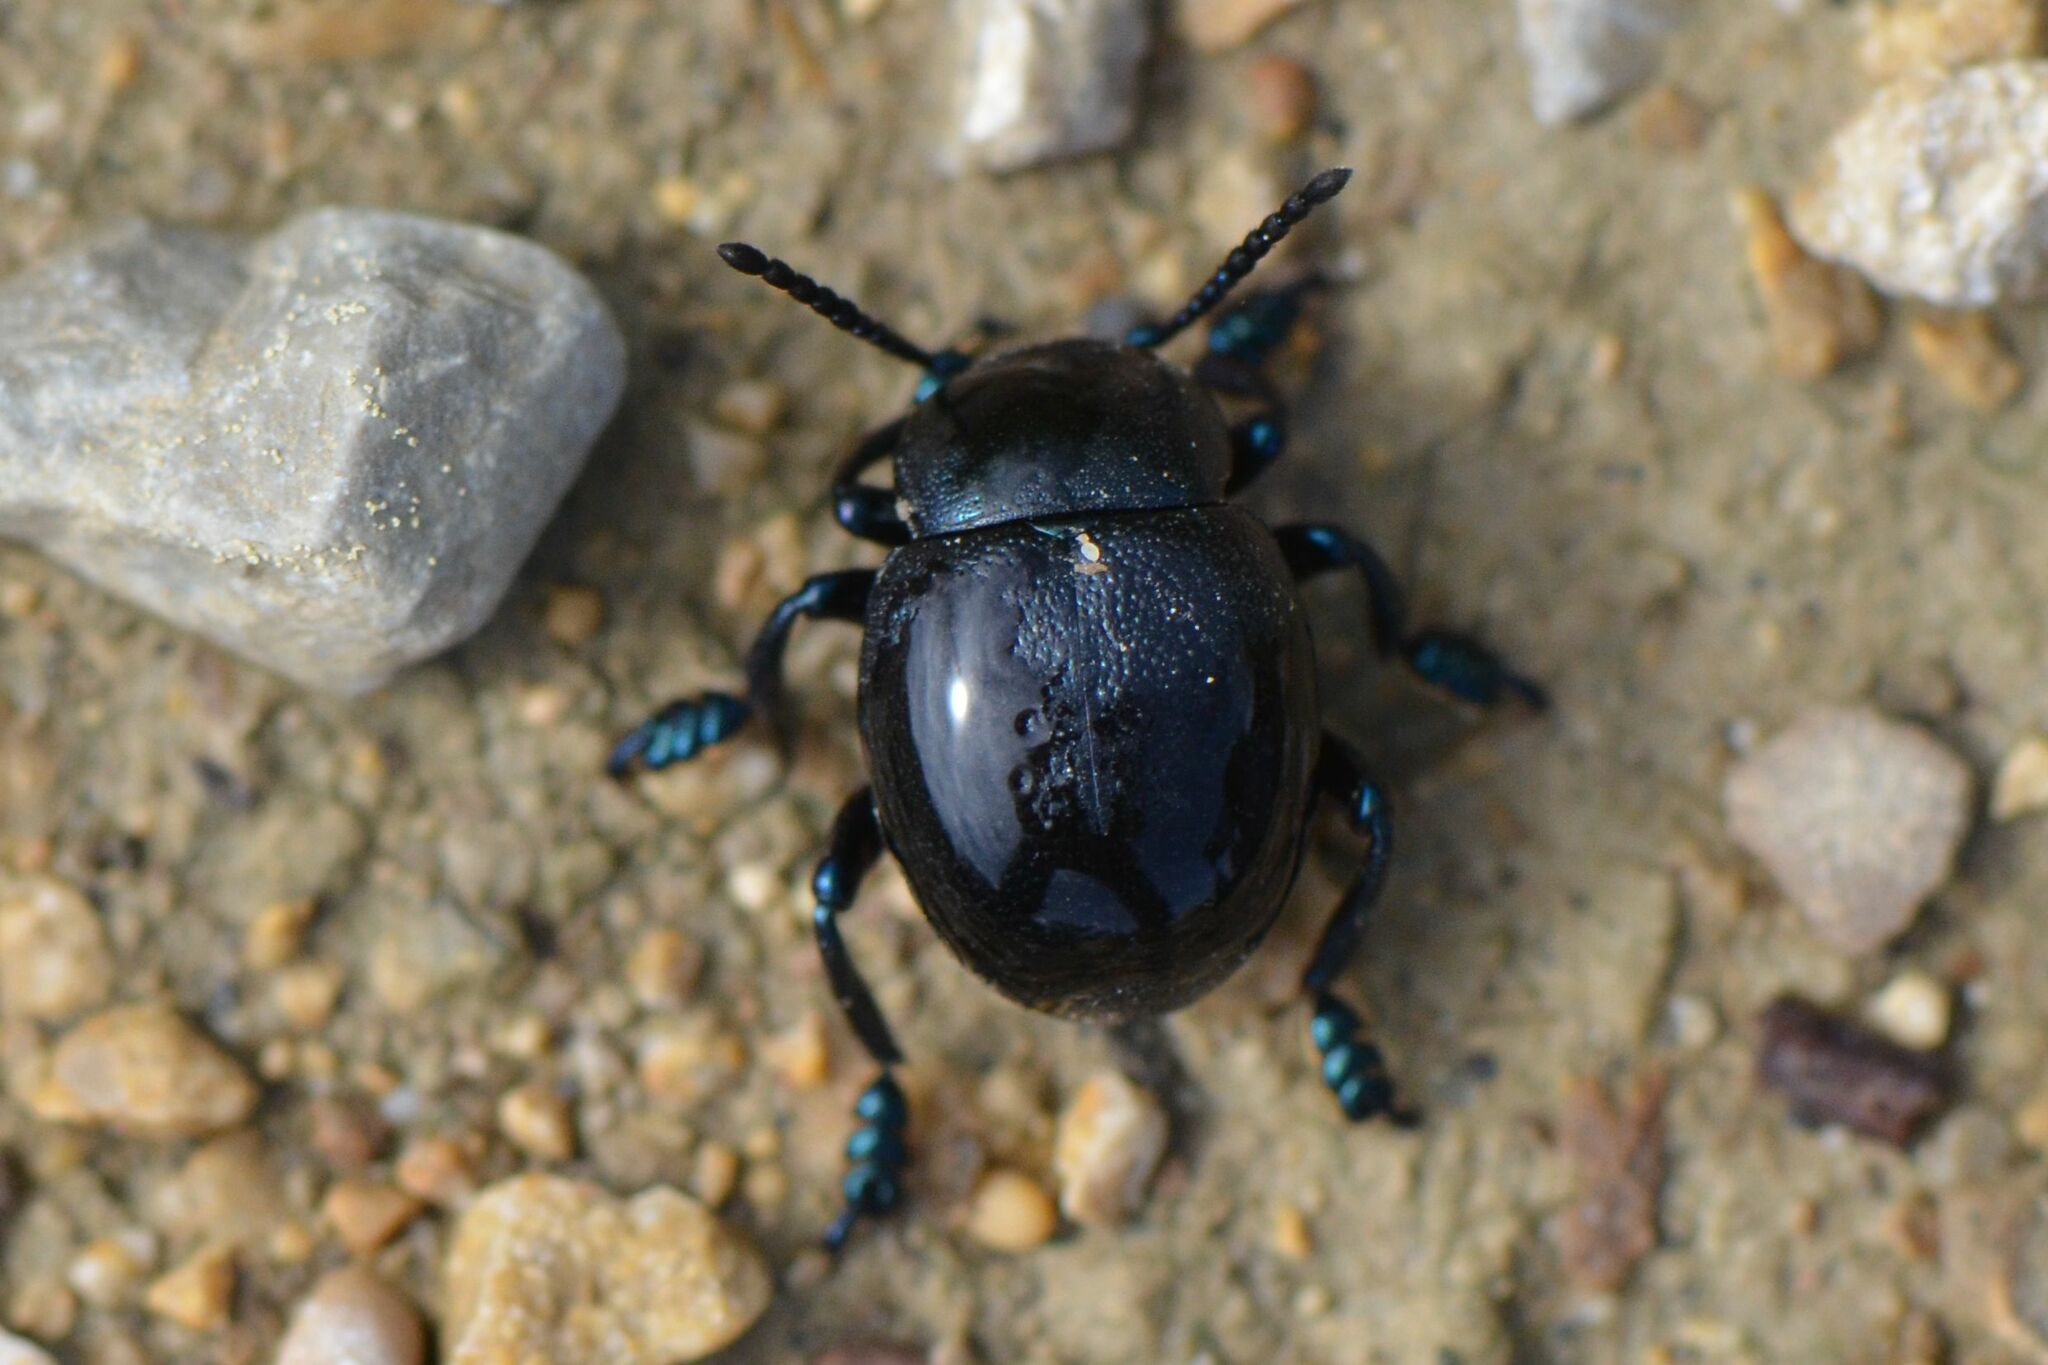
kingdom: Animalia
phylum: Arthropoda
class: Insecta
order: Coleoptera
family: Chrysomelidae
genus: Timarcha
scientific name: Timarcha goettingensis
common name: Small bloody-nosed beetle
